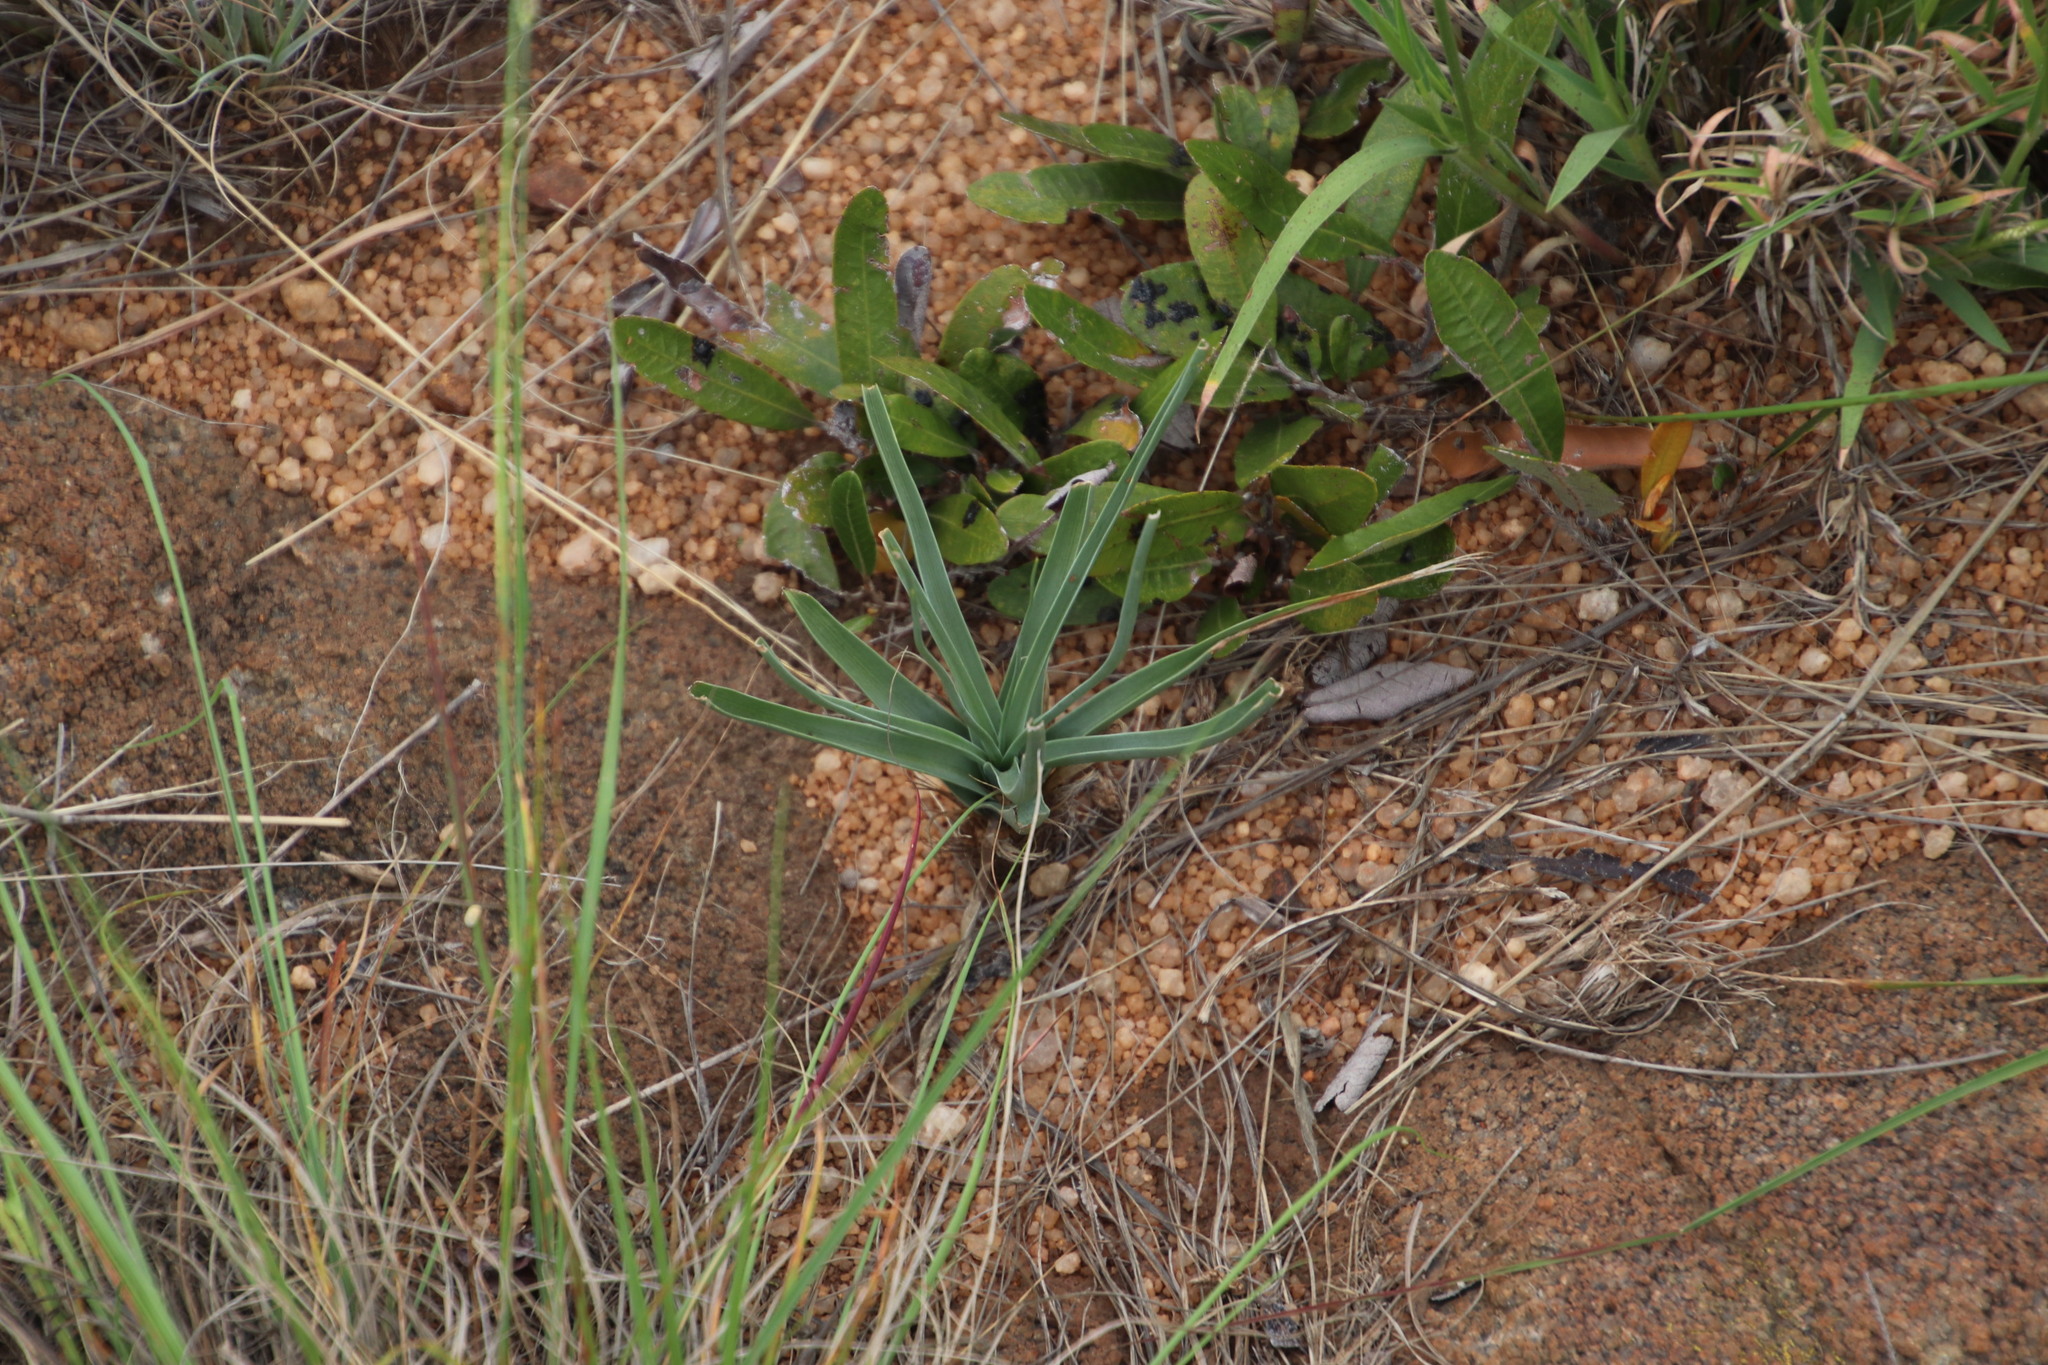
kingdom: Plantae
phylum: Tracheophyta
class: Liliopsida
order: Asparagales
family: Asparagaceae
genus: Albuca
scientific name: Albuca setosa
